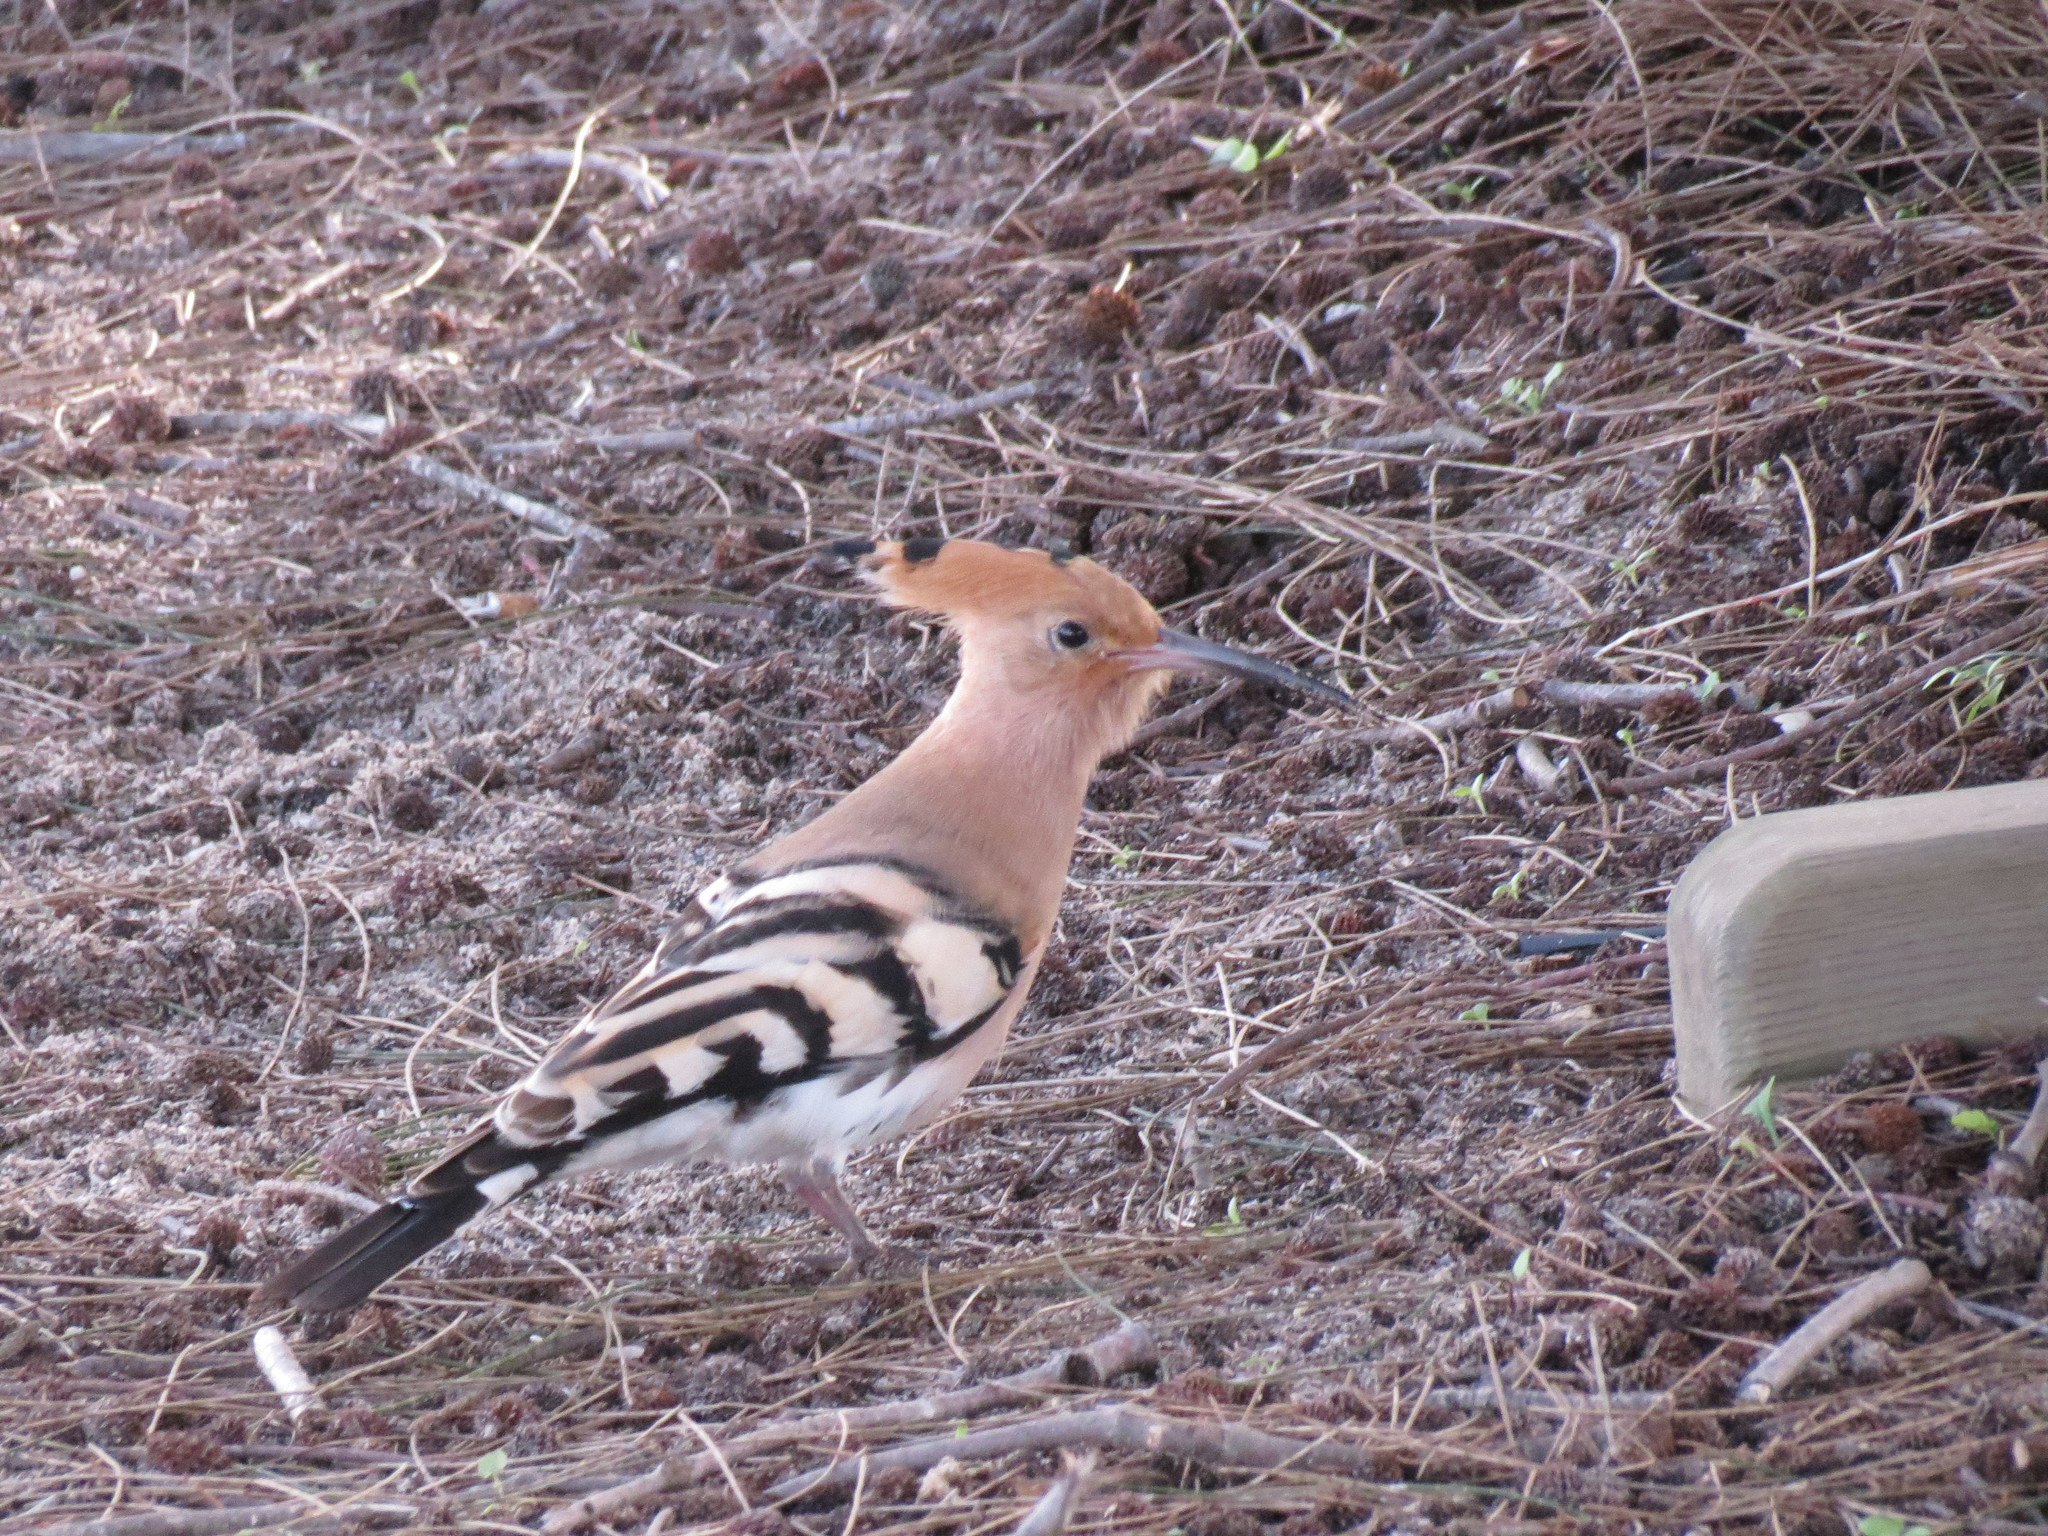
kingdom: Animalia
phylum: Chordata
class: Aves
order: Bucerotiformes
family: Upupidae
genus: Upupa
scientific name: Upupa epops
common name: Eurasian hoopoe
